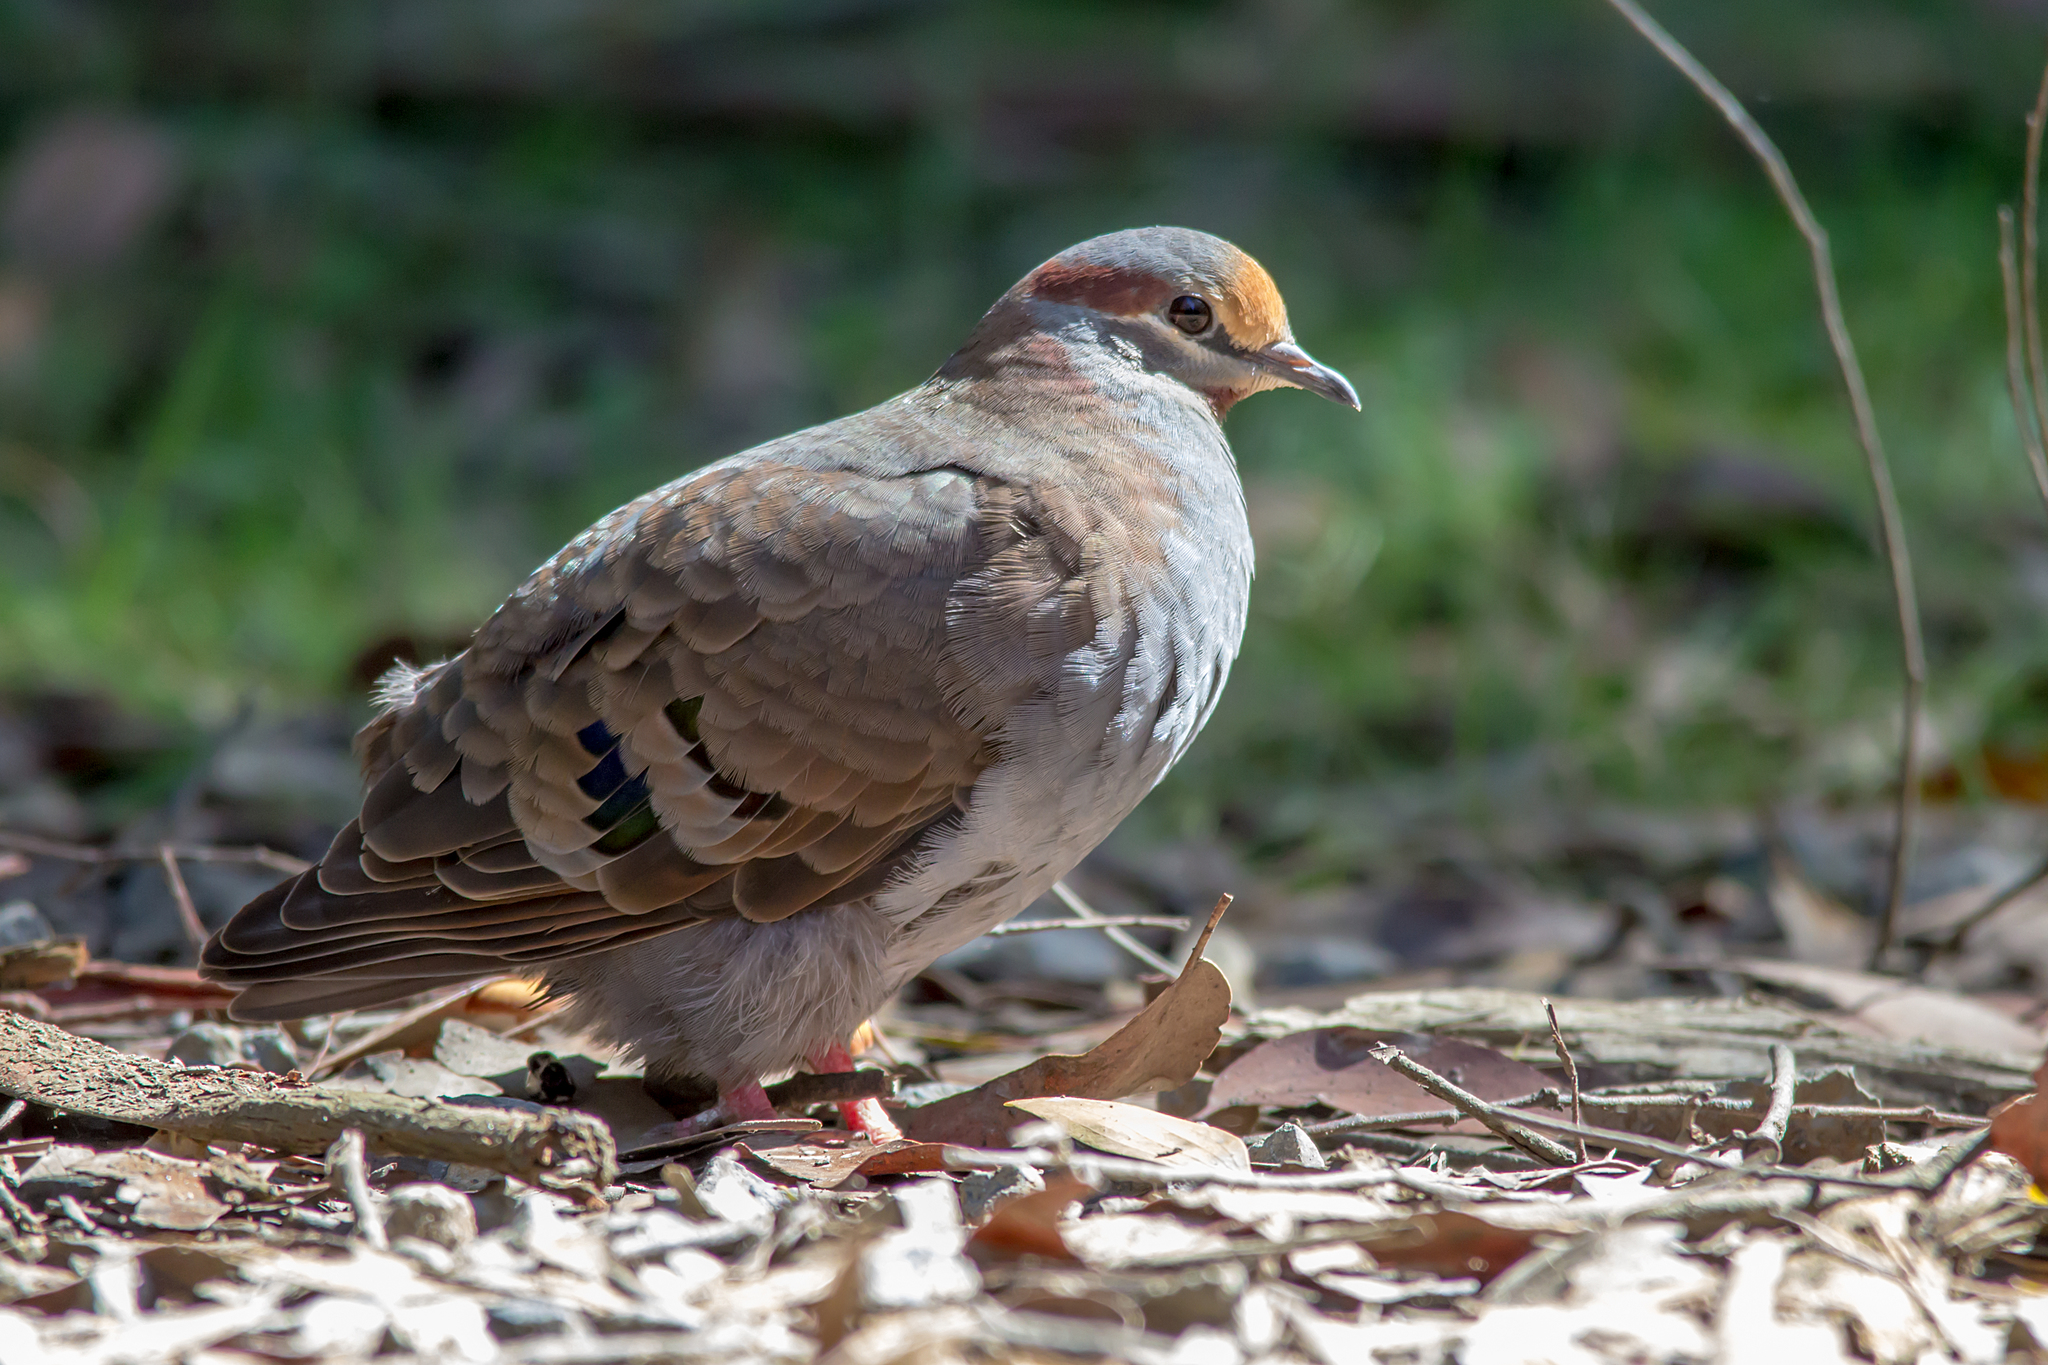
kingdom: Animalia
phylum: Chordata
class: Aves
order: Columbiformes
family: Columbidae
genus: Phaps
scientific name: Phaps elegans
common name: Brush bronzewing
